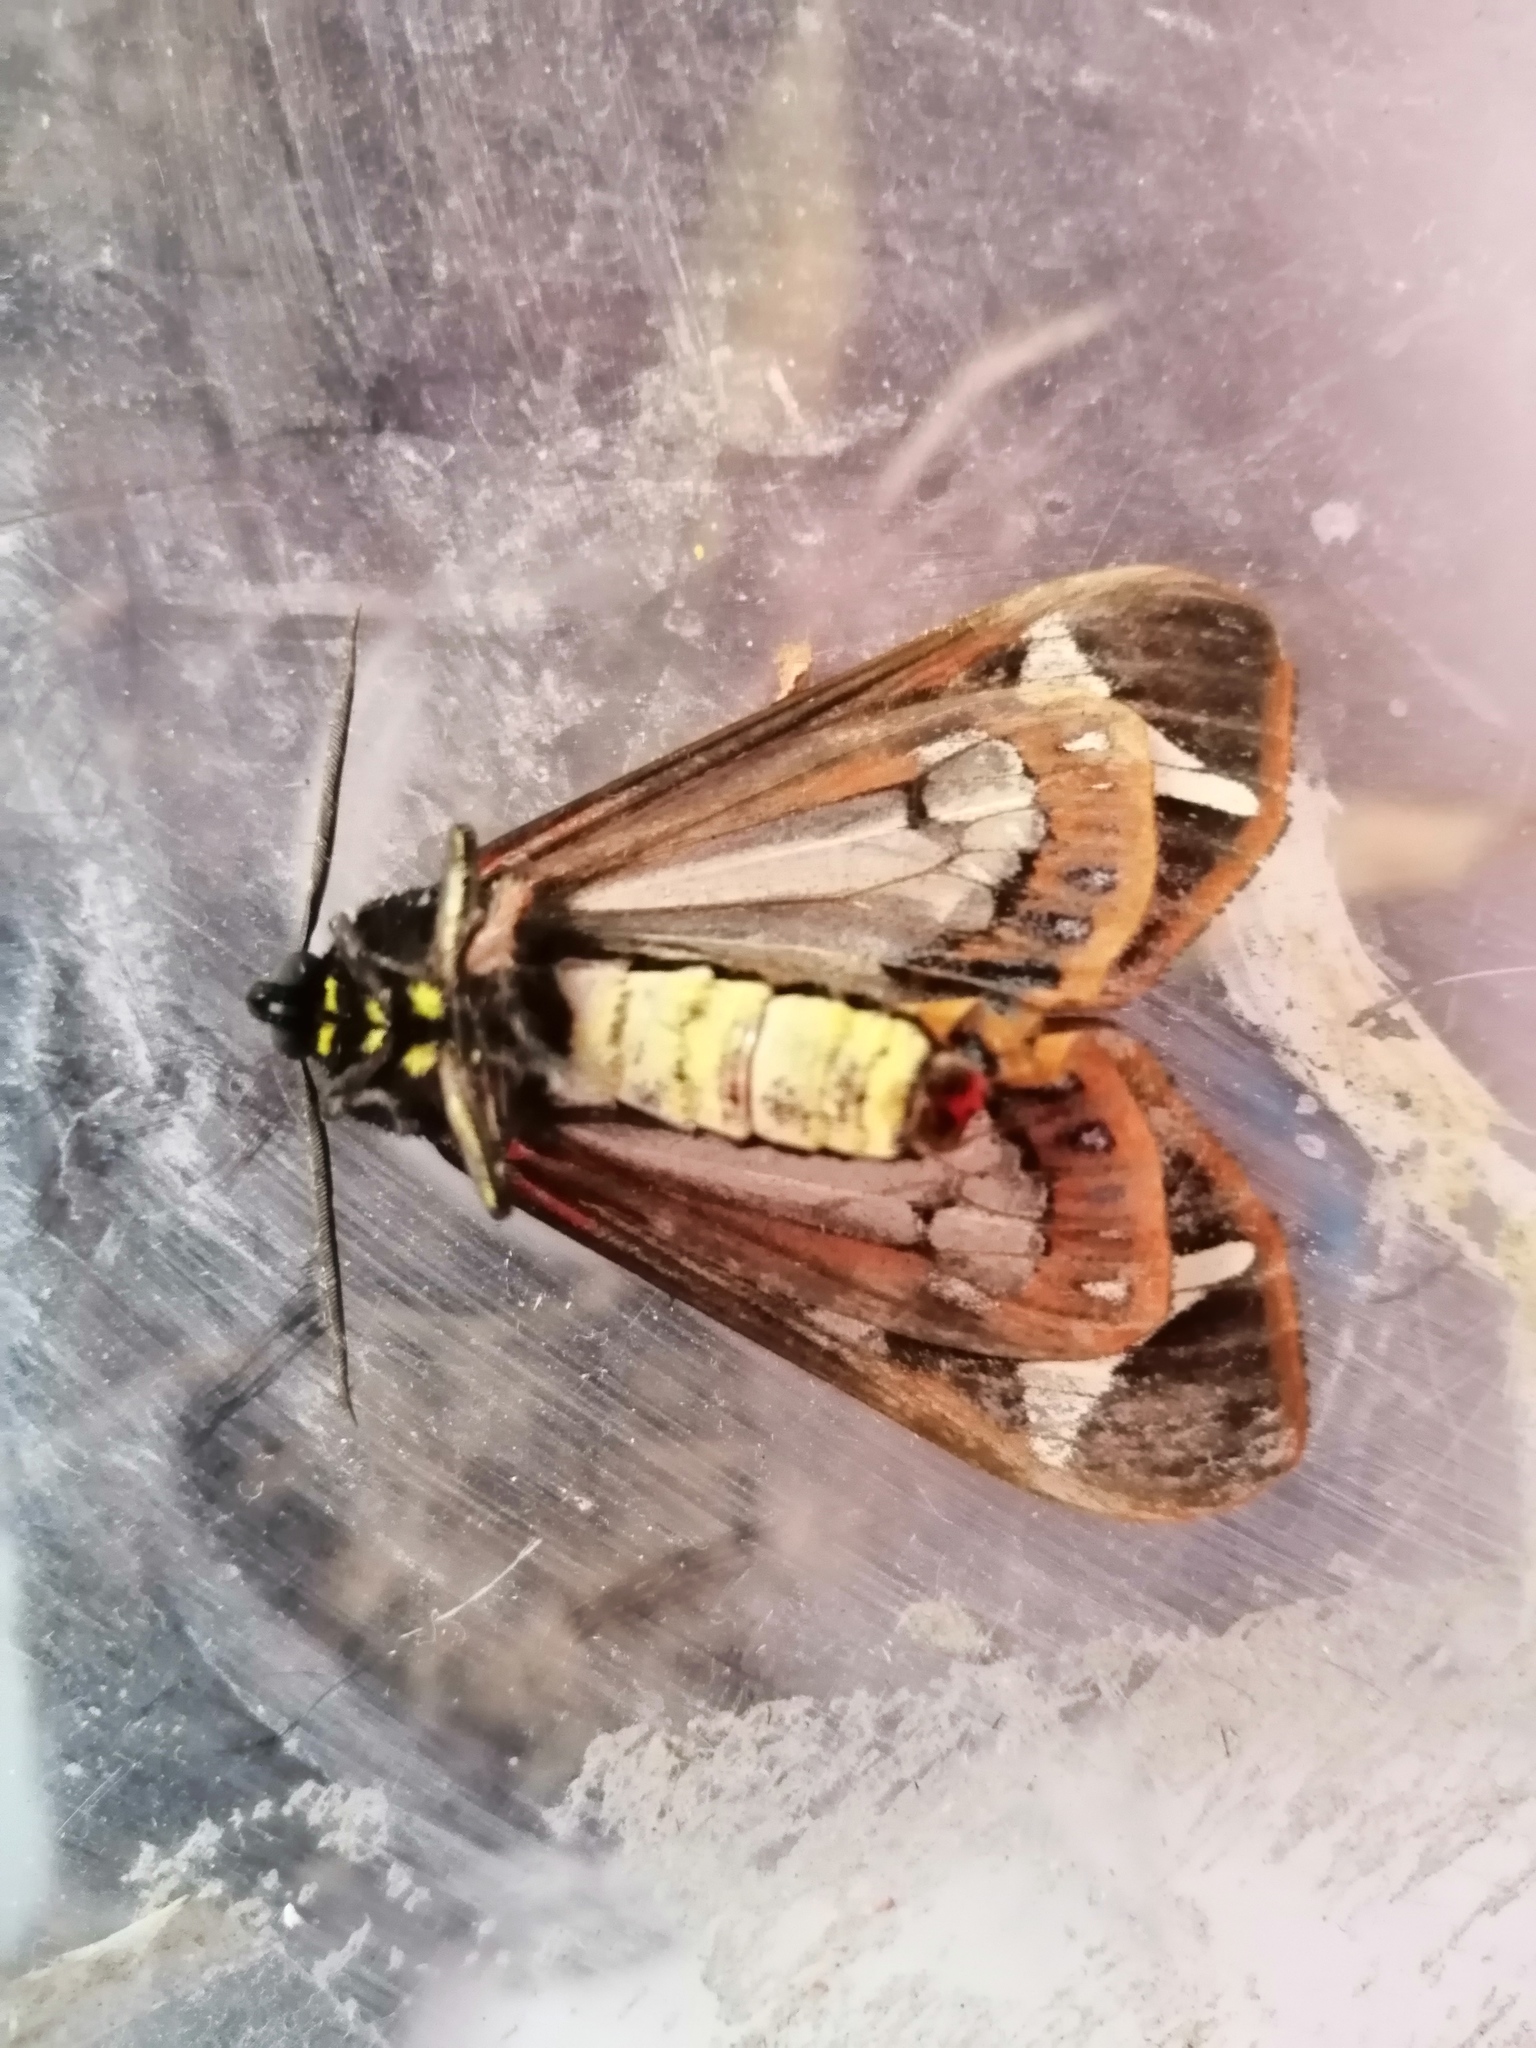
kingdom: Animalia
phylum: Arthropoda
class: Insecta
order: Lepidoptera
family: Erebidae
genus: Dysschema
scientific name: Dysschema howardi
